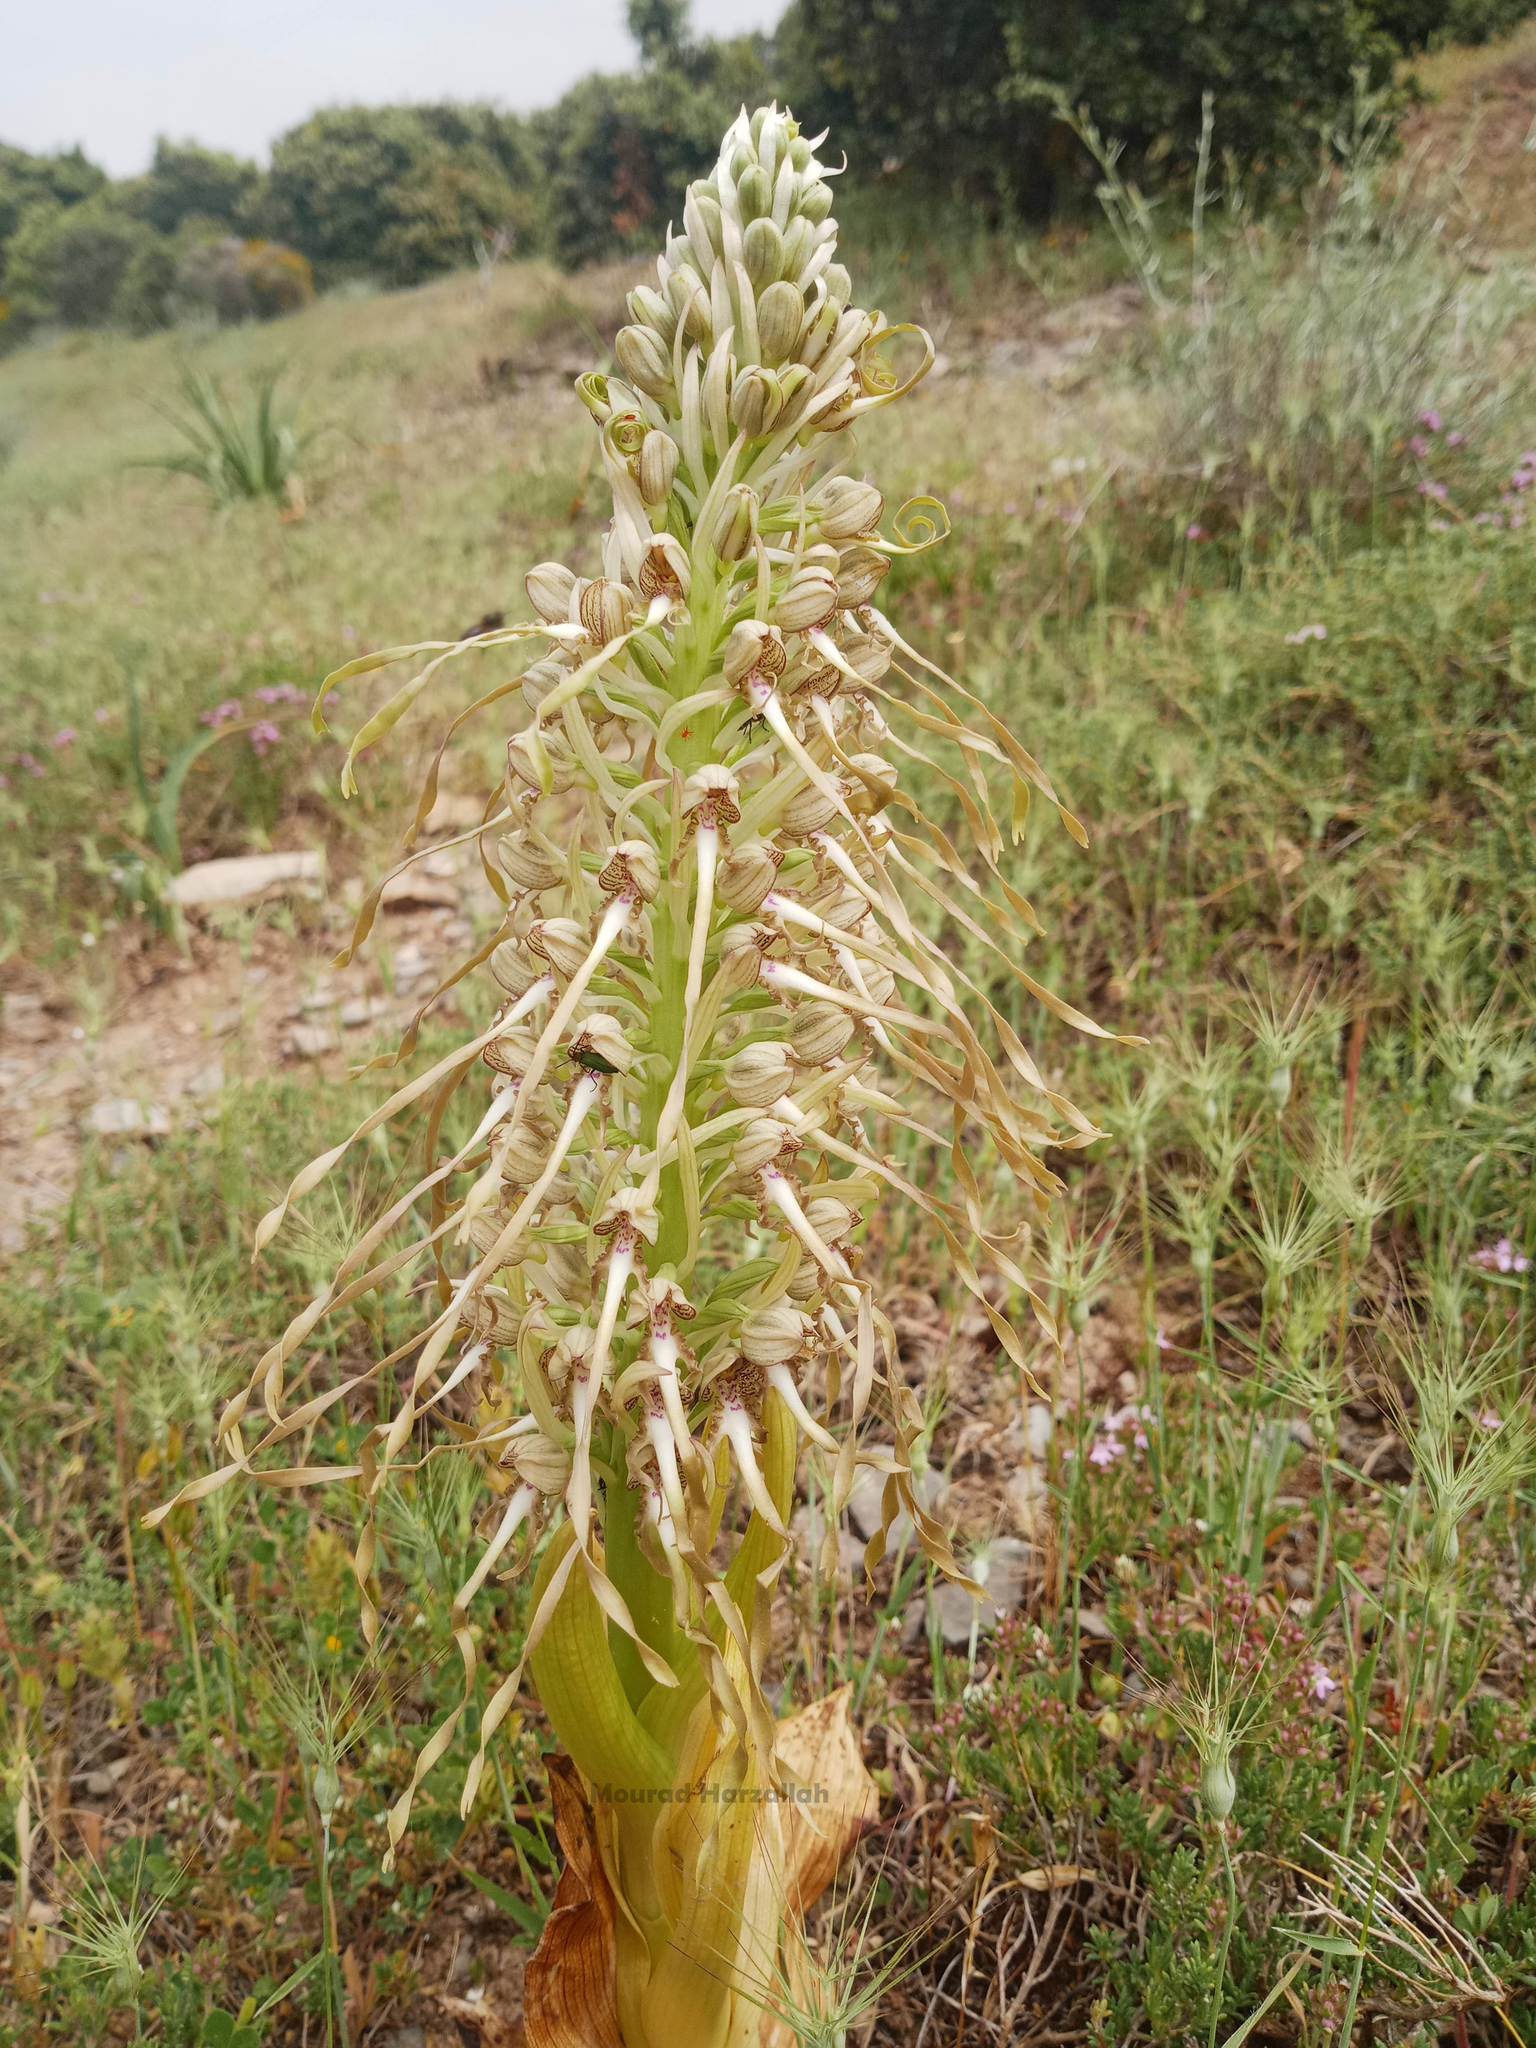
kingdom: Plantae
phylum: Tracheophyta
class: Liliopsida
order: Asparagales
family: Orchidaceae
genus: Himantoglossum
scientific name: Himantoglossum hircinum
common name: Lizard orchid
